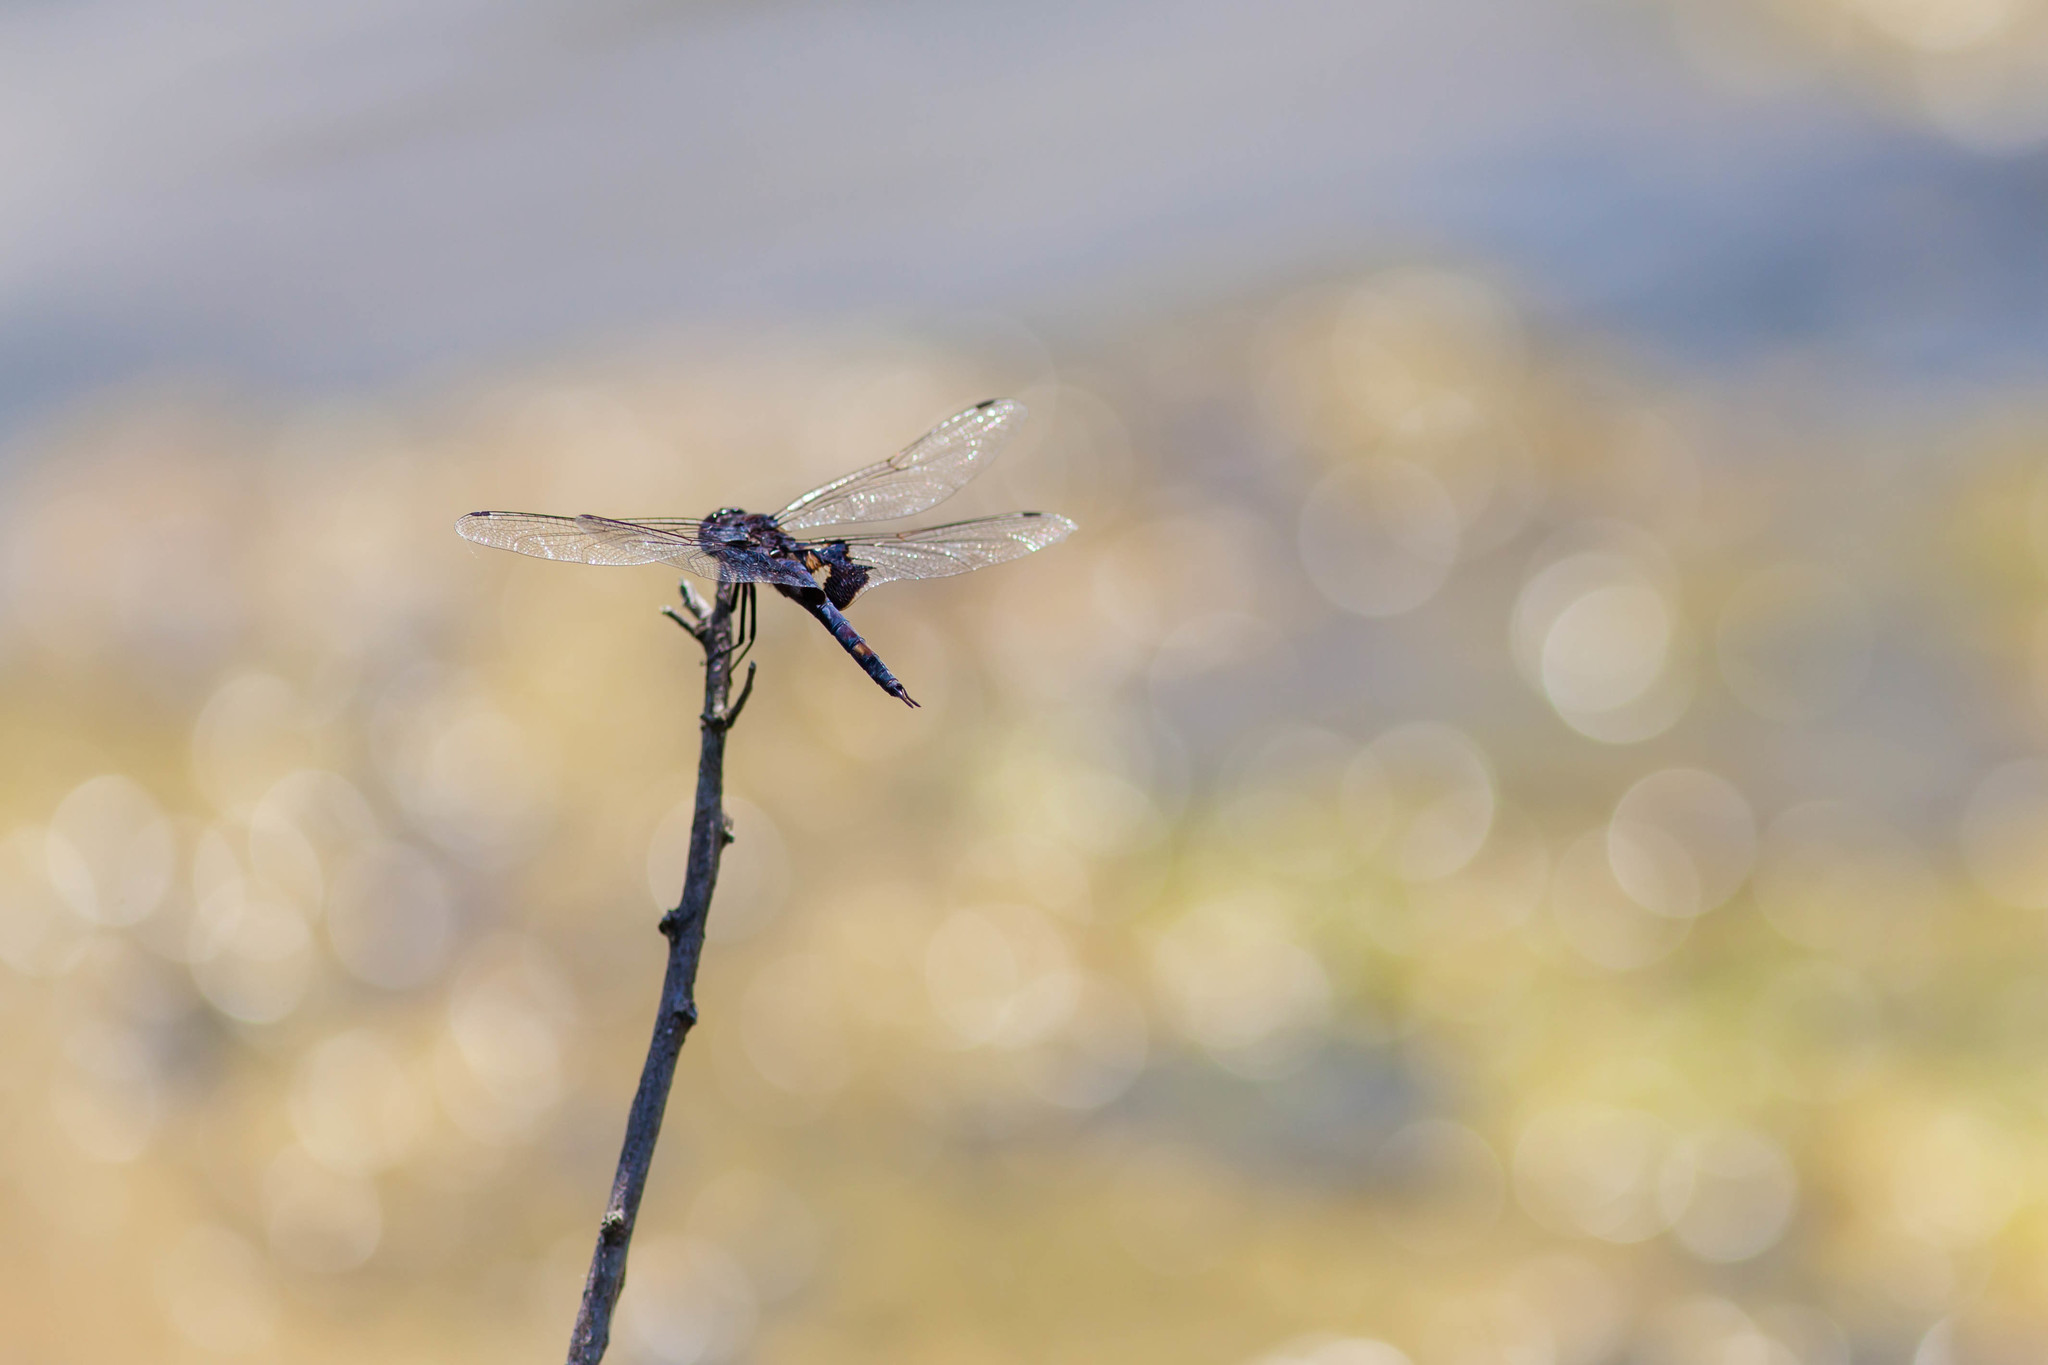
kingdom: Animalia
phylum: Arthropoda
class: Insecta
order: Odonata
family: Libellulidae
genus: Tramea
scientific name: Tramea lacerata
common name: Black saddlebags
